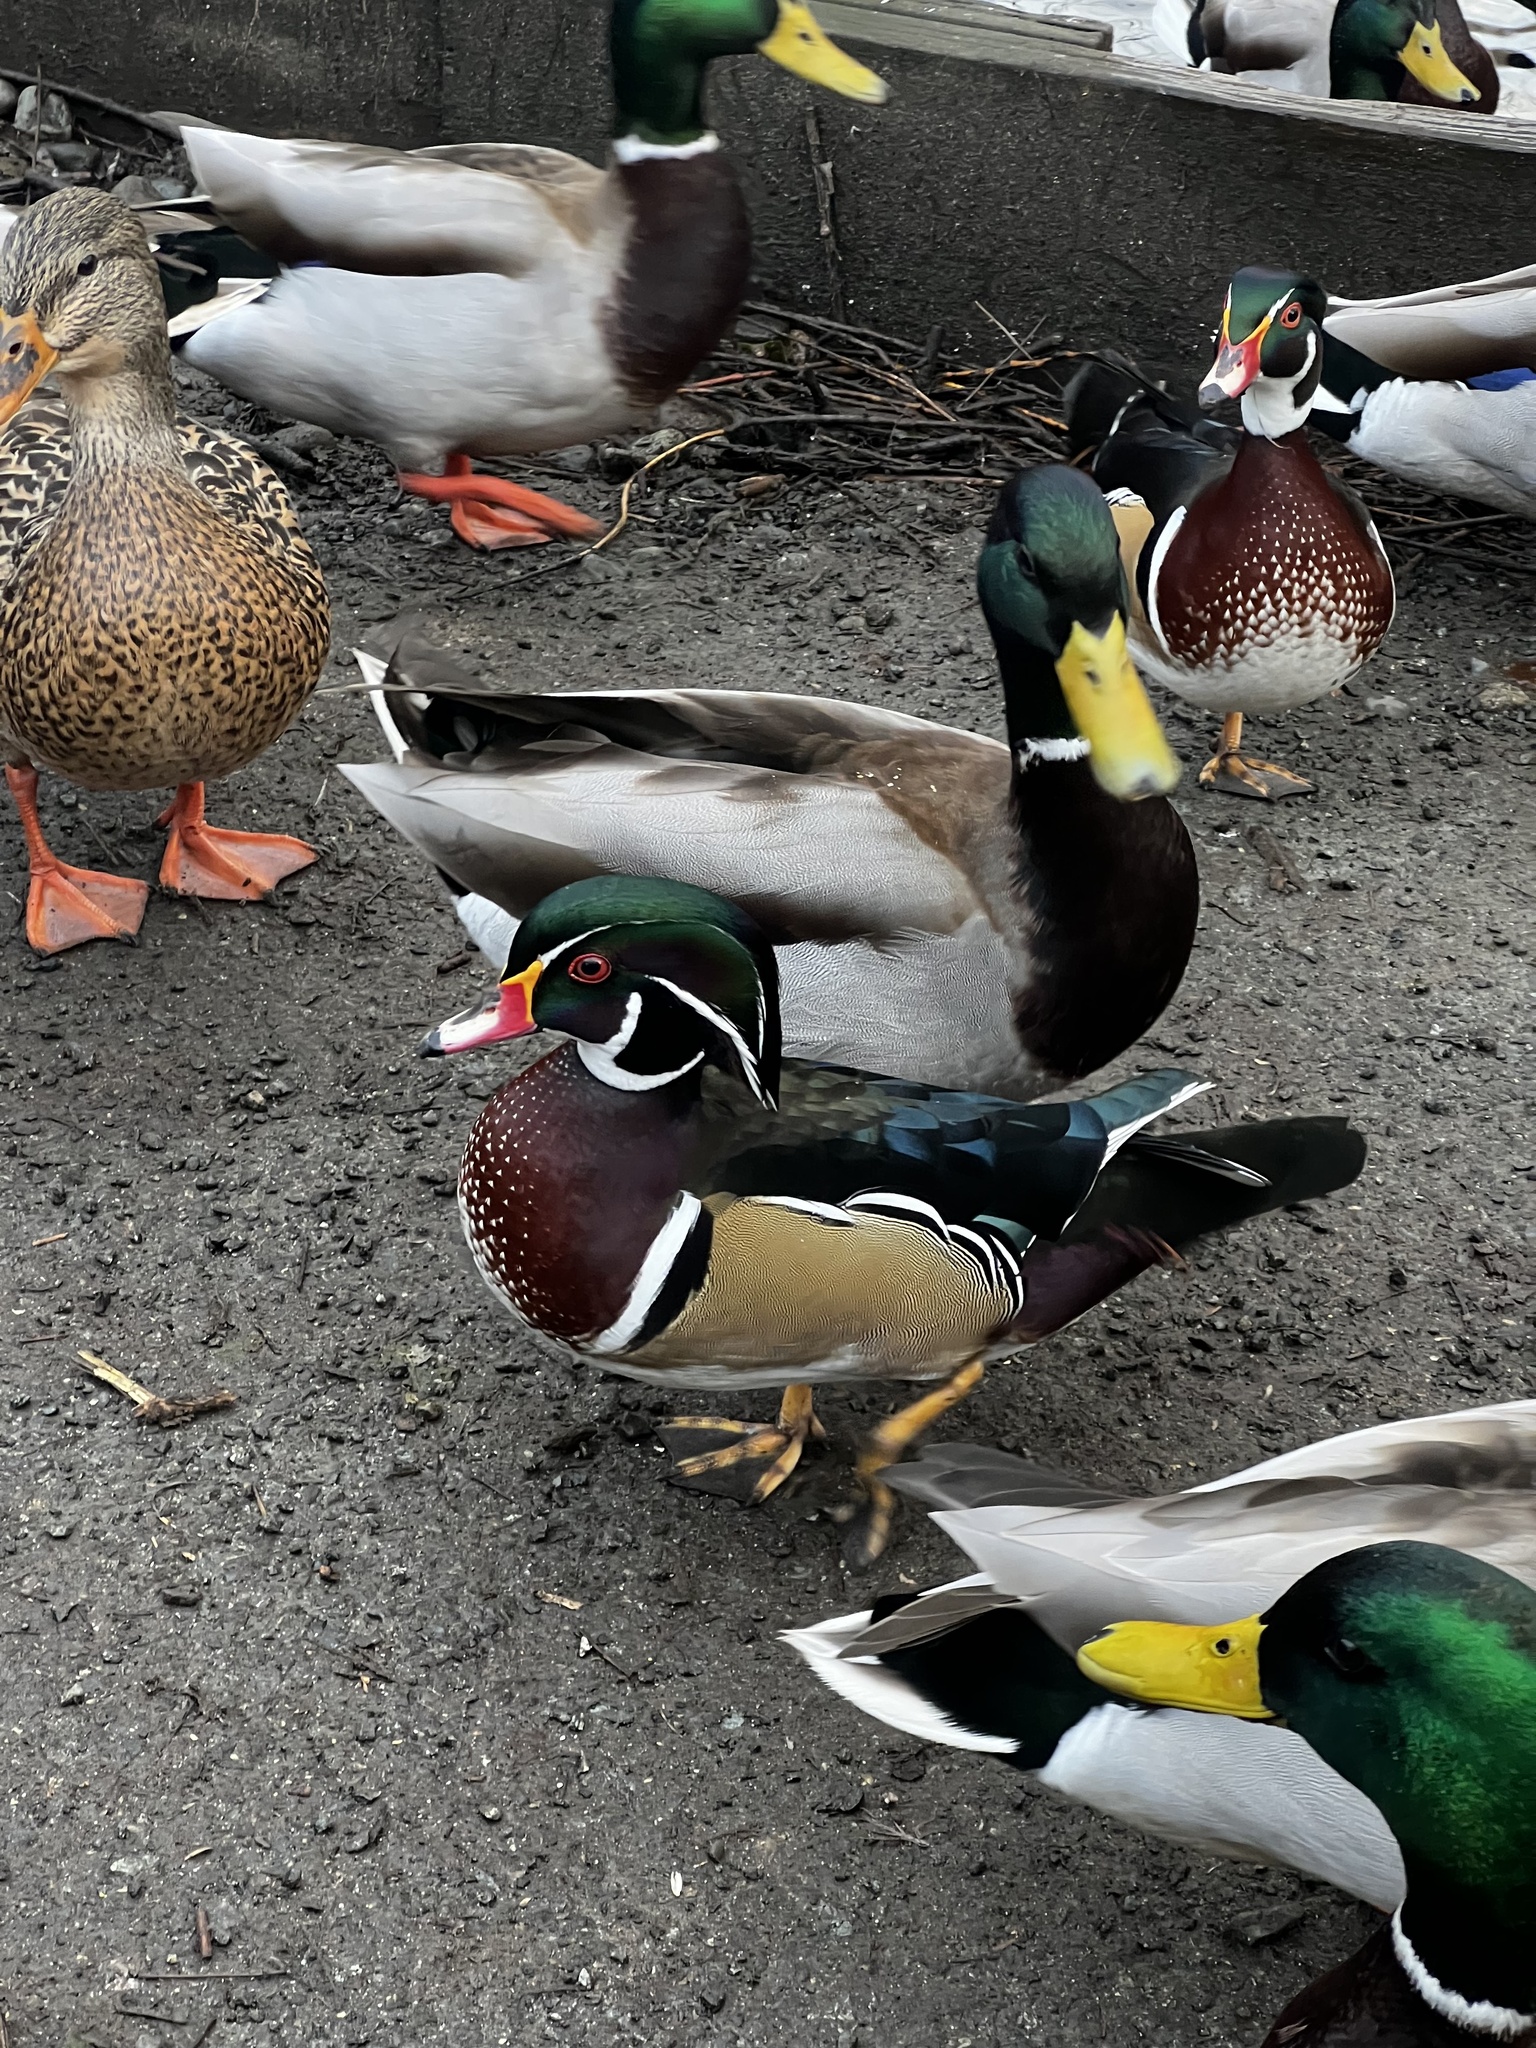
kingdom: Animalia
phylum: Chordata
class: Aves
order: Anseriformes
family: Anatidae
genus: Aix
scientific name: Aix sponsa
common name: Wood duck
